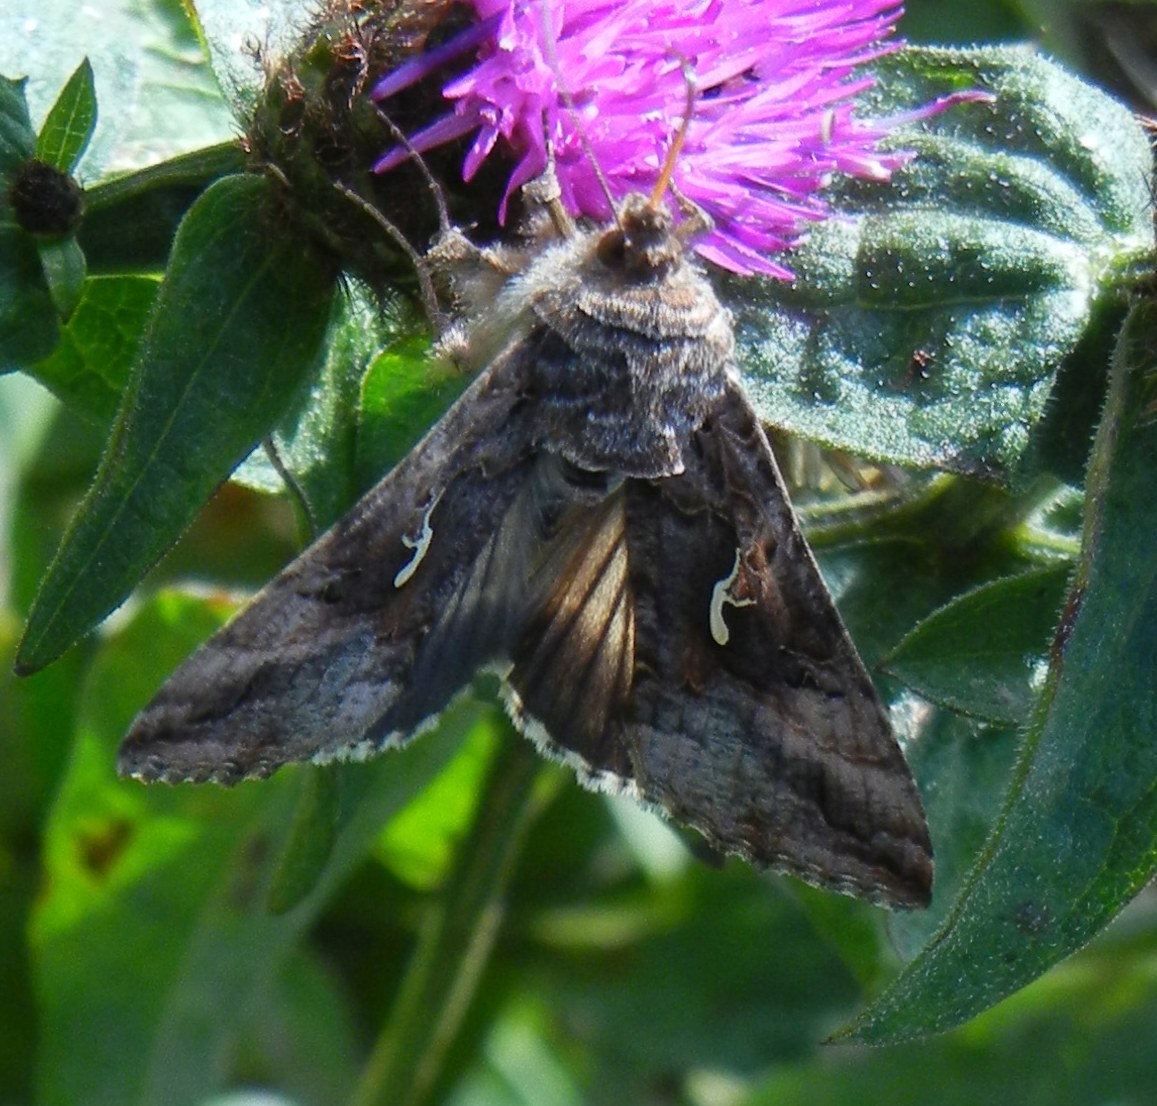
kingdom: Animalia
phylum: Arthropoda
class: Insecta
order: Lepidoptera
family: Noctuidae
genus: Autographa
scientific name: Autographa gamma
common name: Silver y
